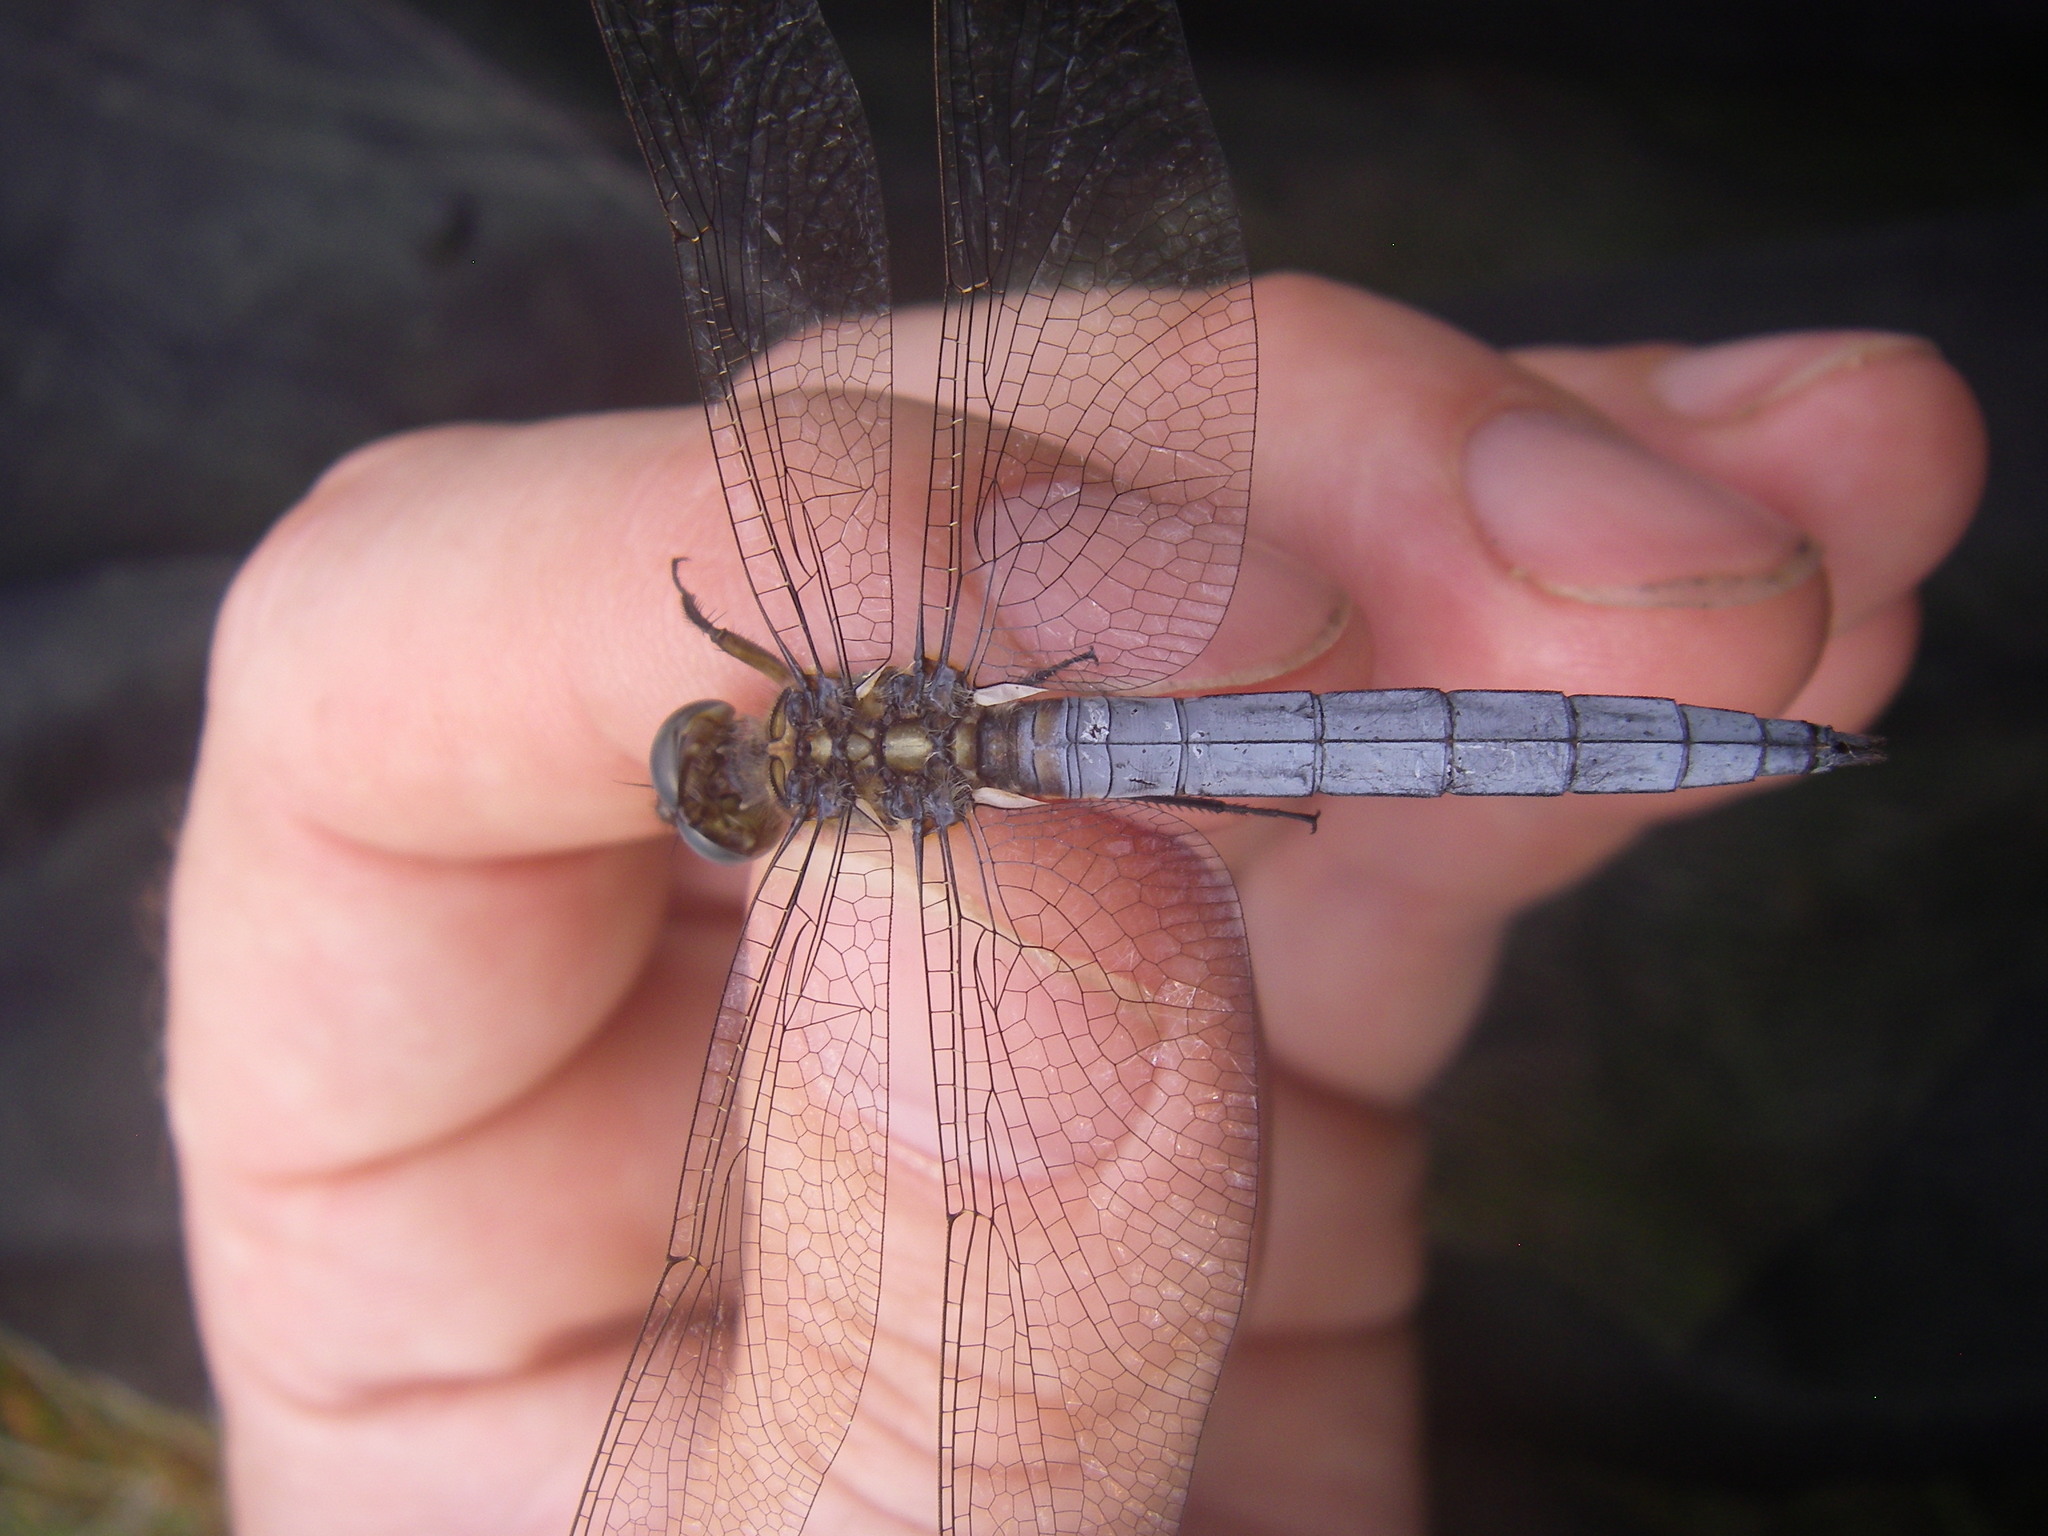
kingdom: Animalia
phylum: Arthropoda
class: Insecta
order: Odonata
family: Libellulidae
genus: Orthetrum
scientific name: Orthetrum coerulescens
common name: Keeled skimmer
